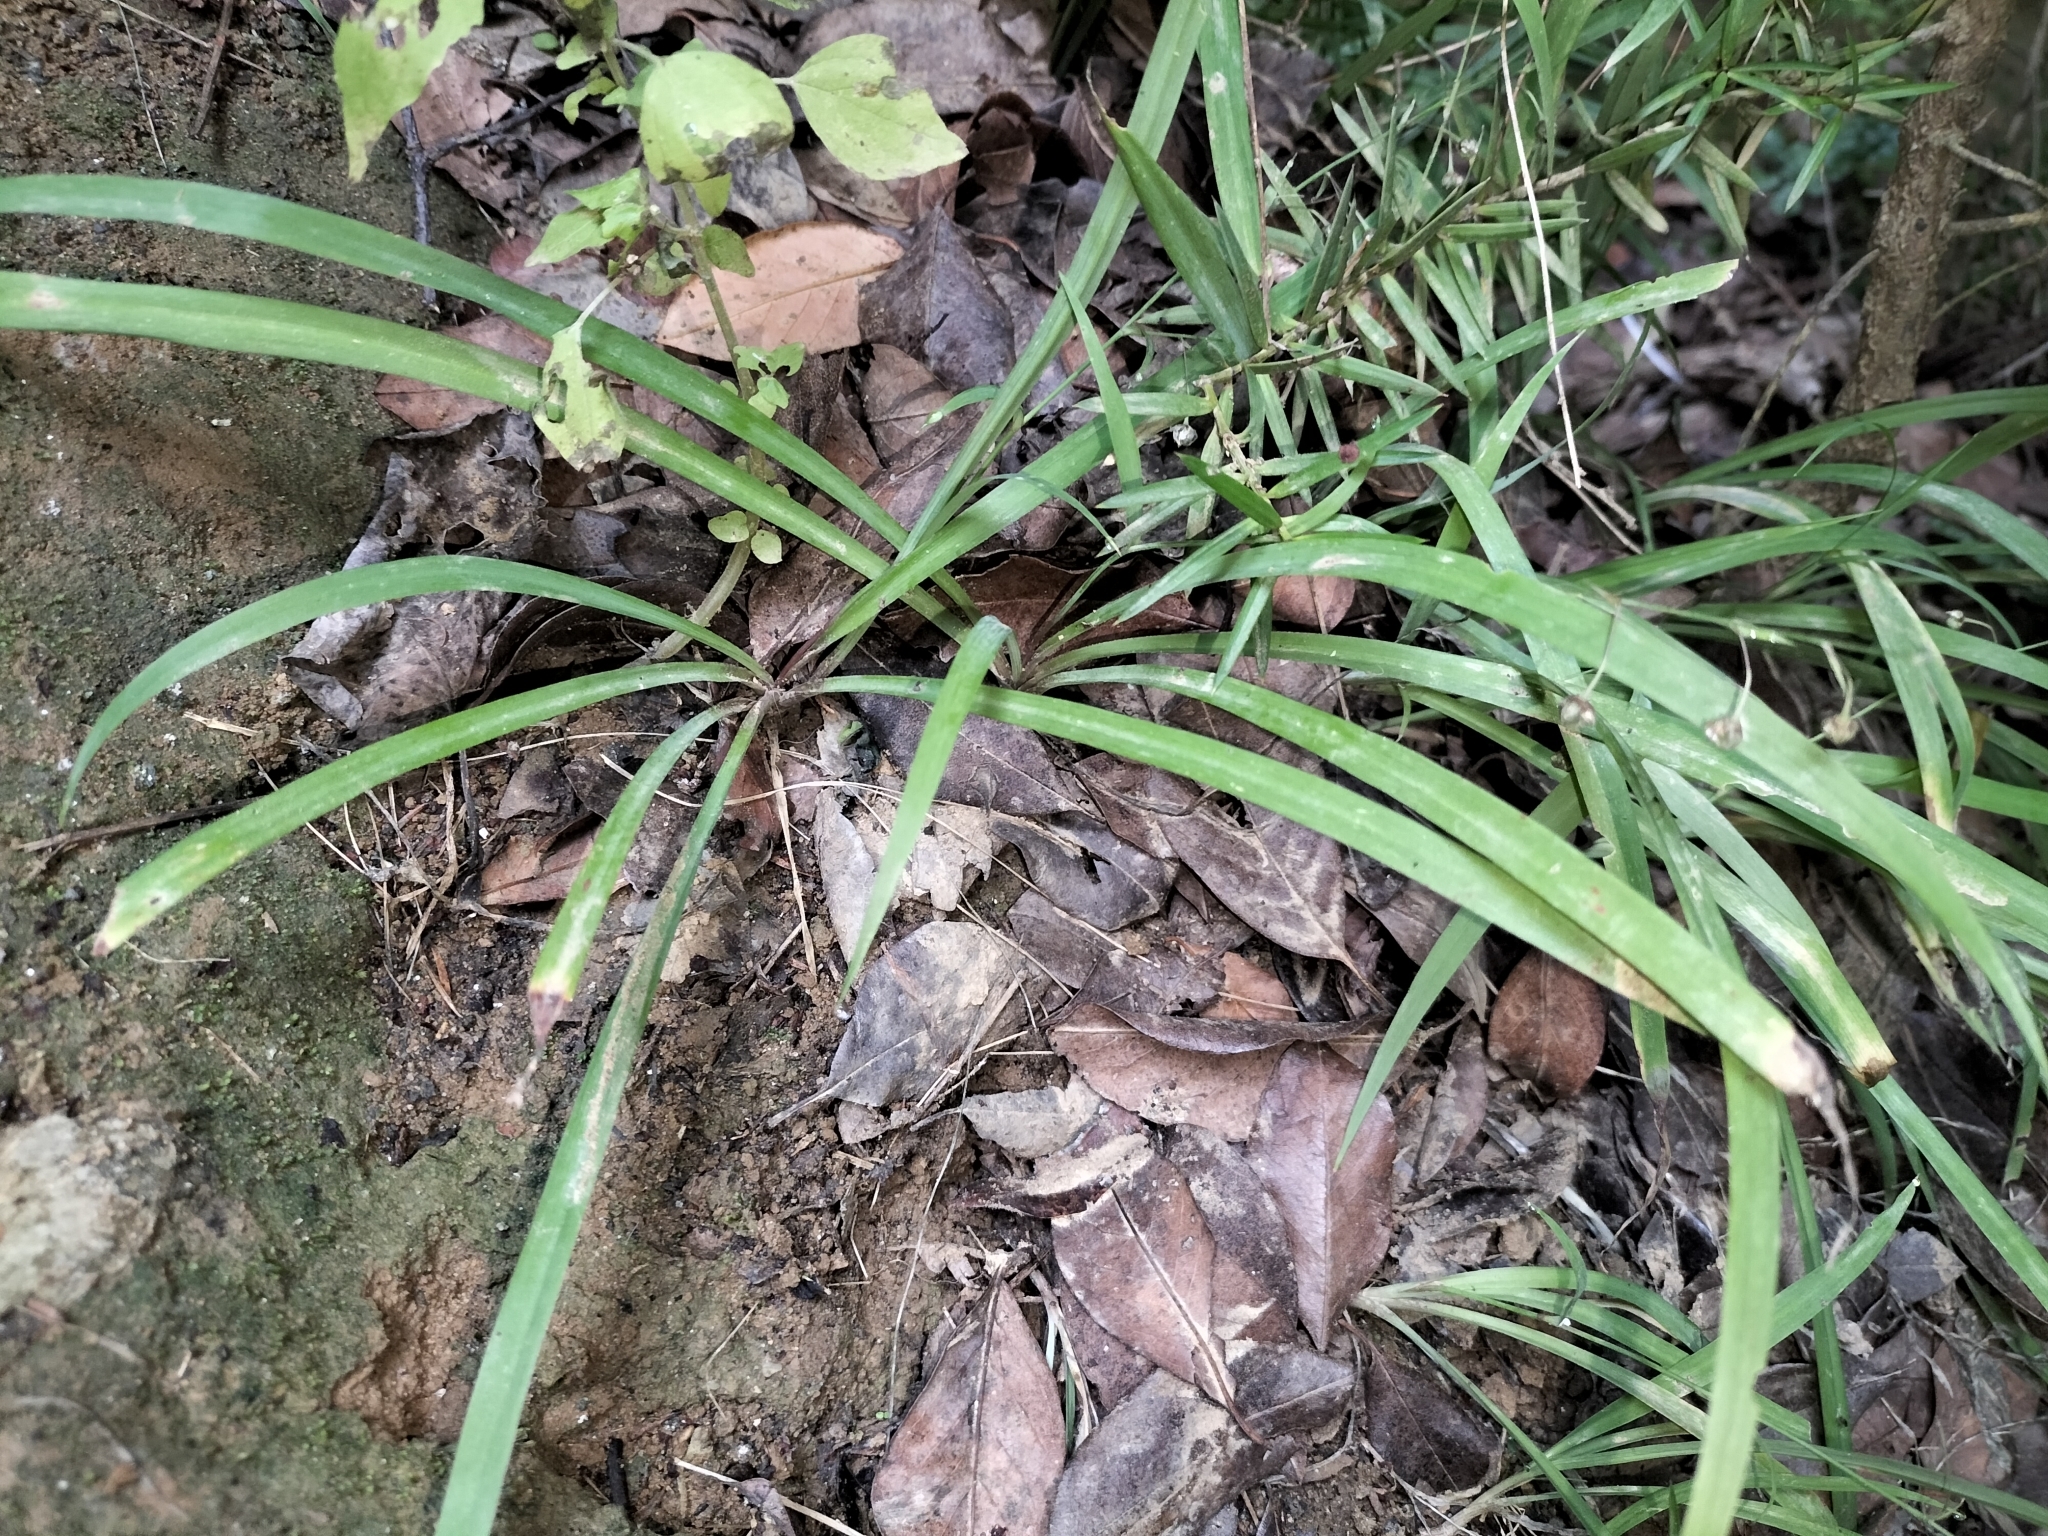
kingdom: Plantae
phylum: Tracheophyta
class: Liliopsida
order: Asparagales
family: Asparagaceae
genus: Arthropodium
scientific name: Arthropodium candidum
